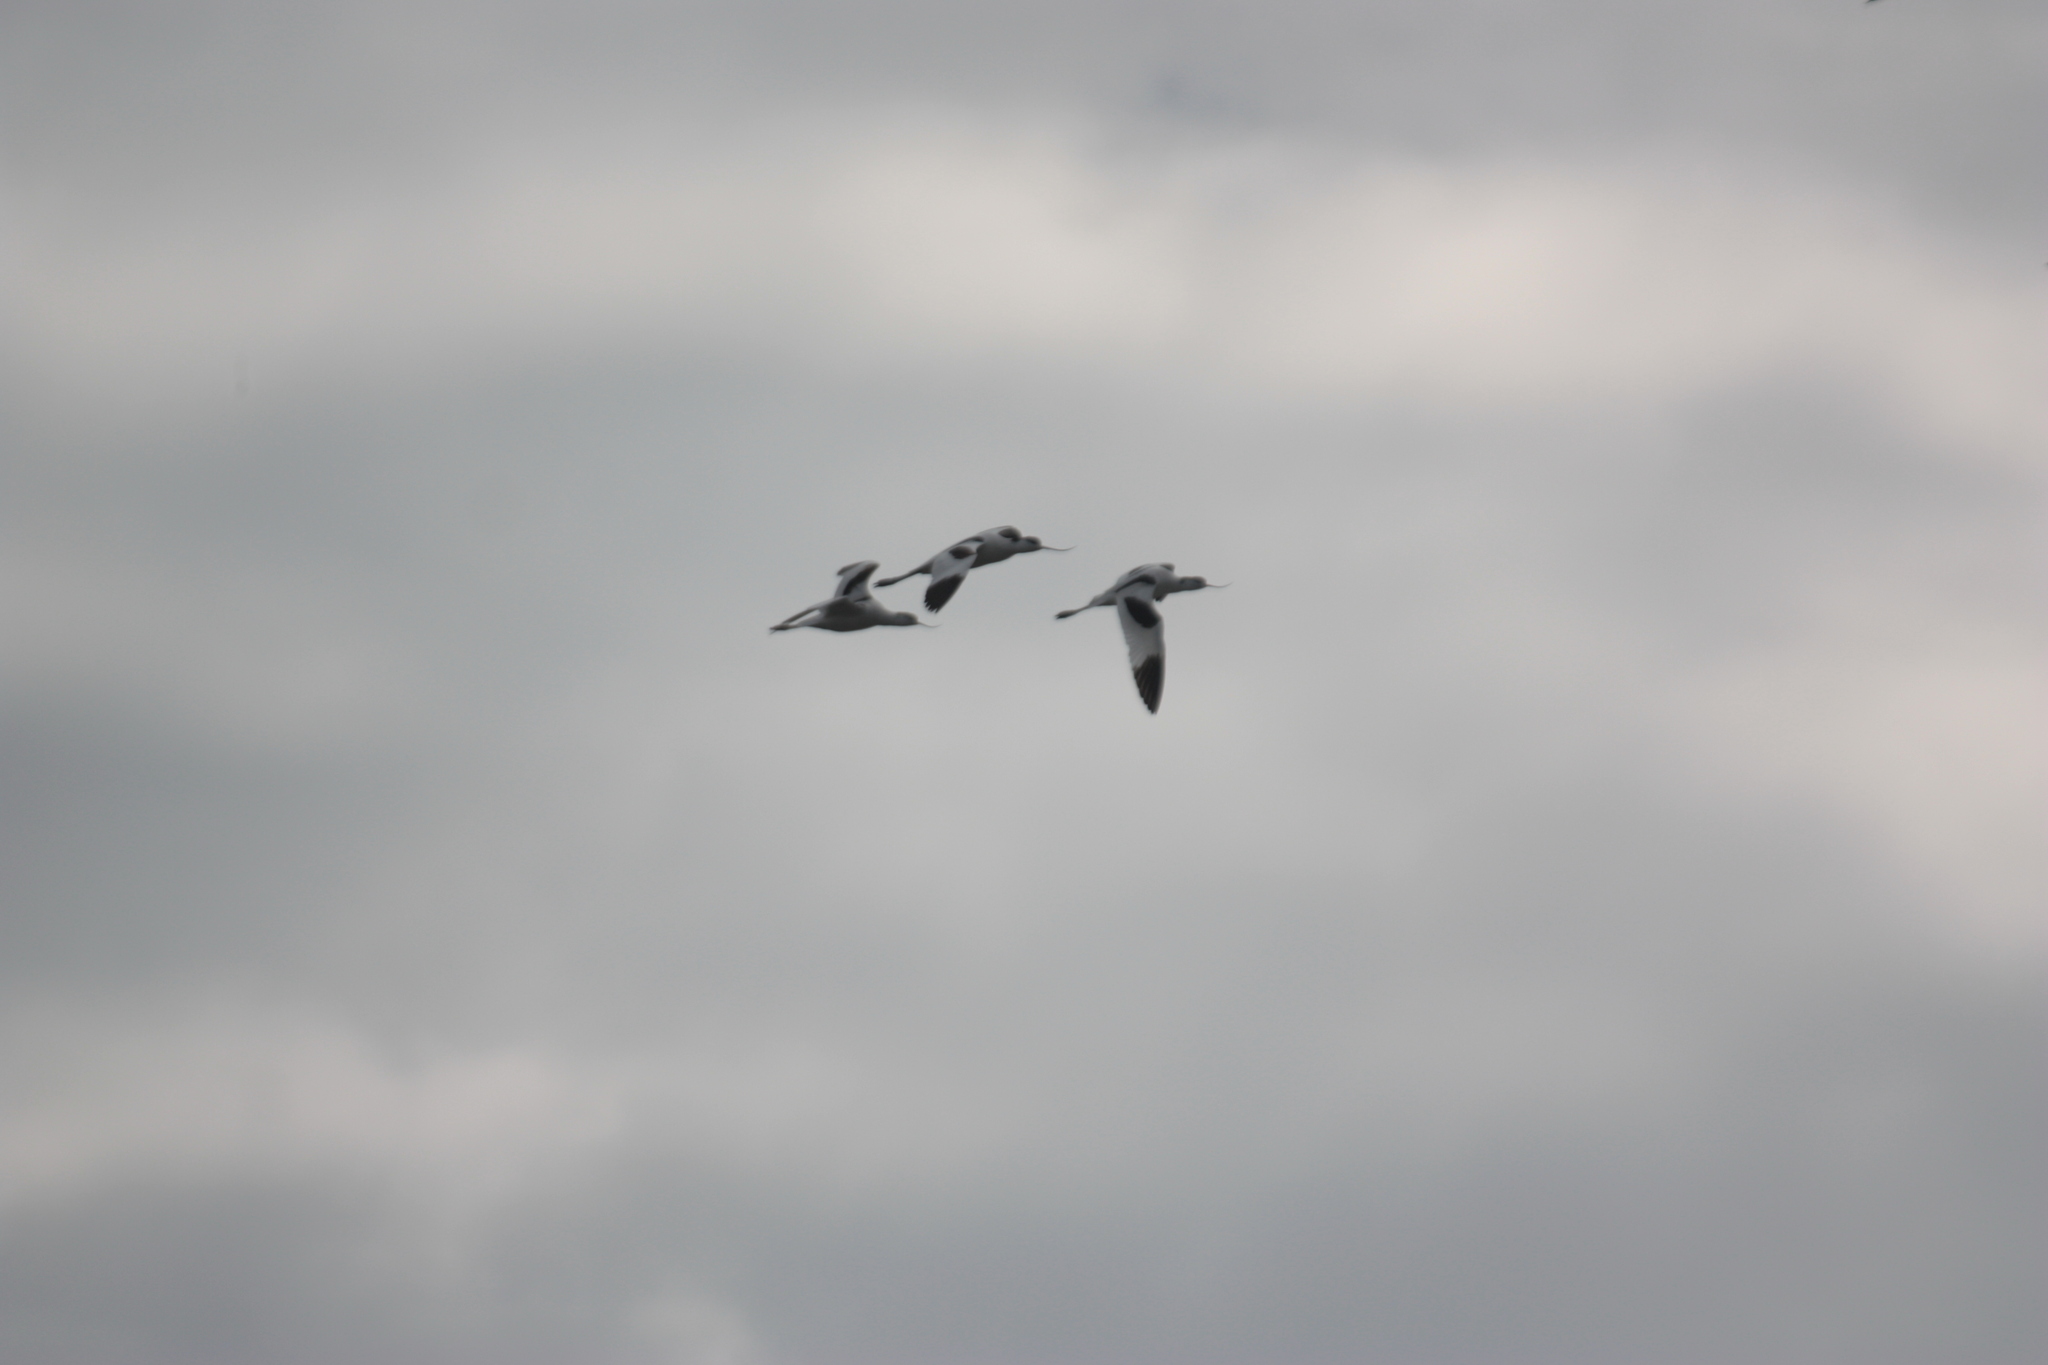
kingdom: Animalia
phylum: Chordata
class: Aves
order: Charadriiformes
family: Recurvirostridae
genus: Recurvirostra
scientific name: Recurvirostra avosetta
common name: Pied avocet
